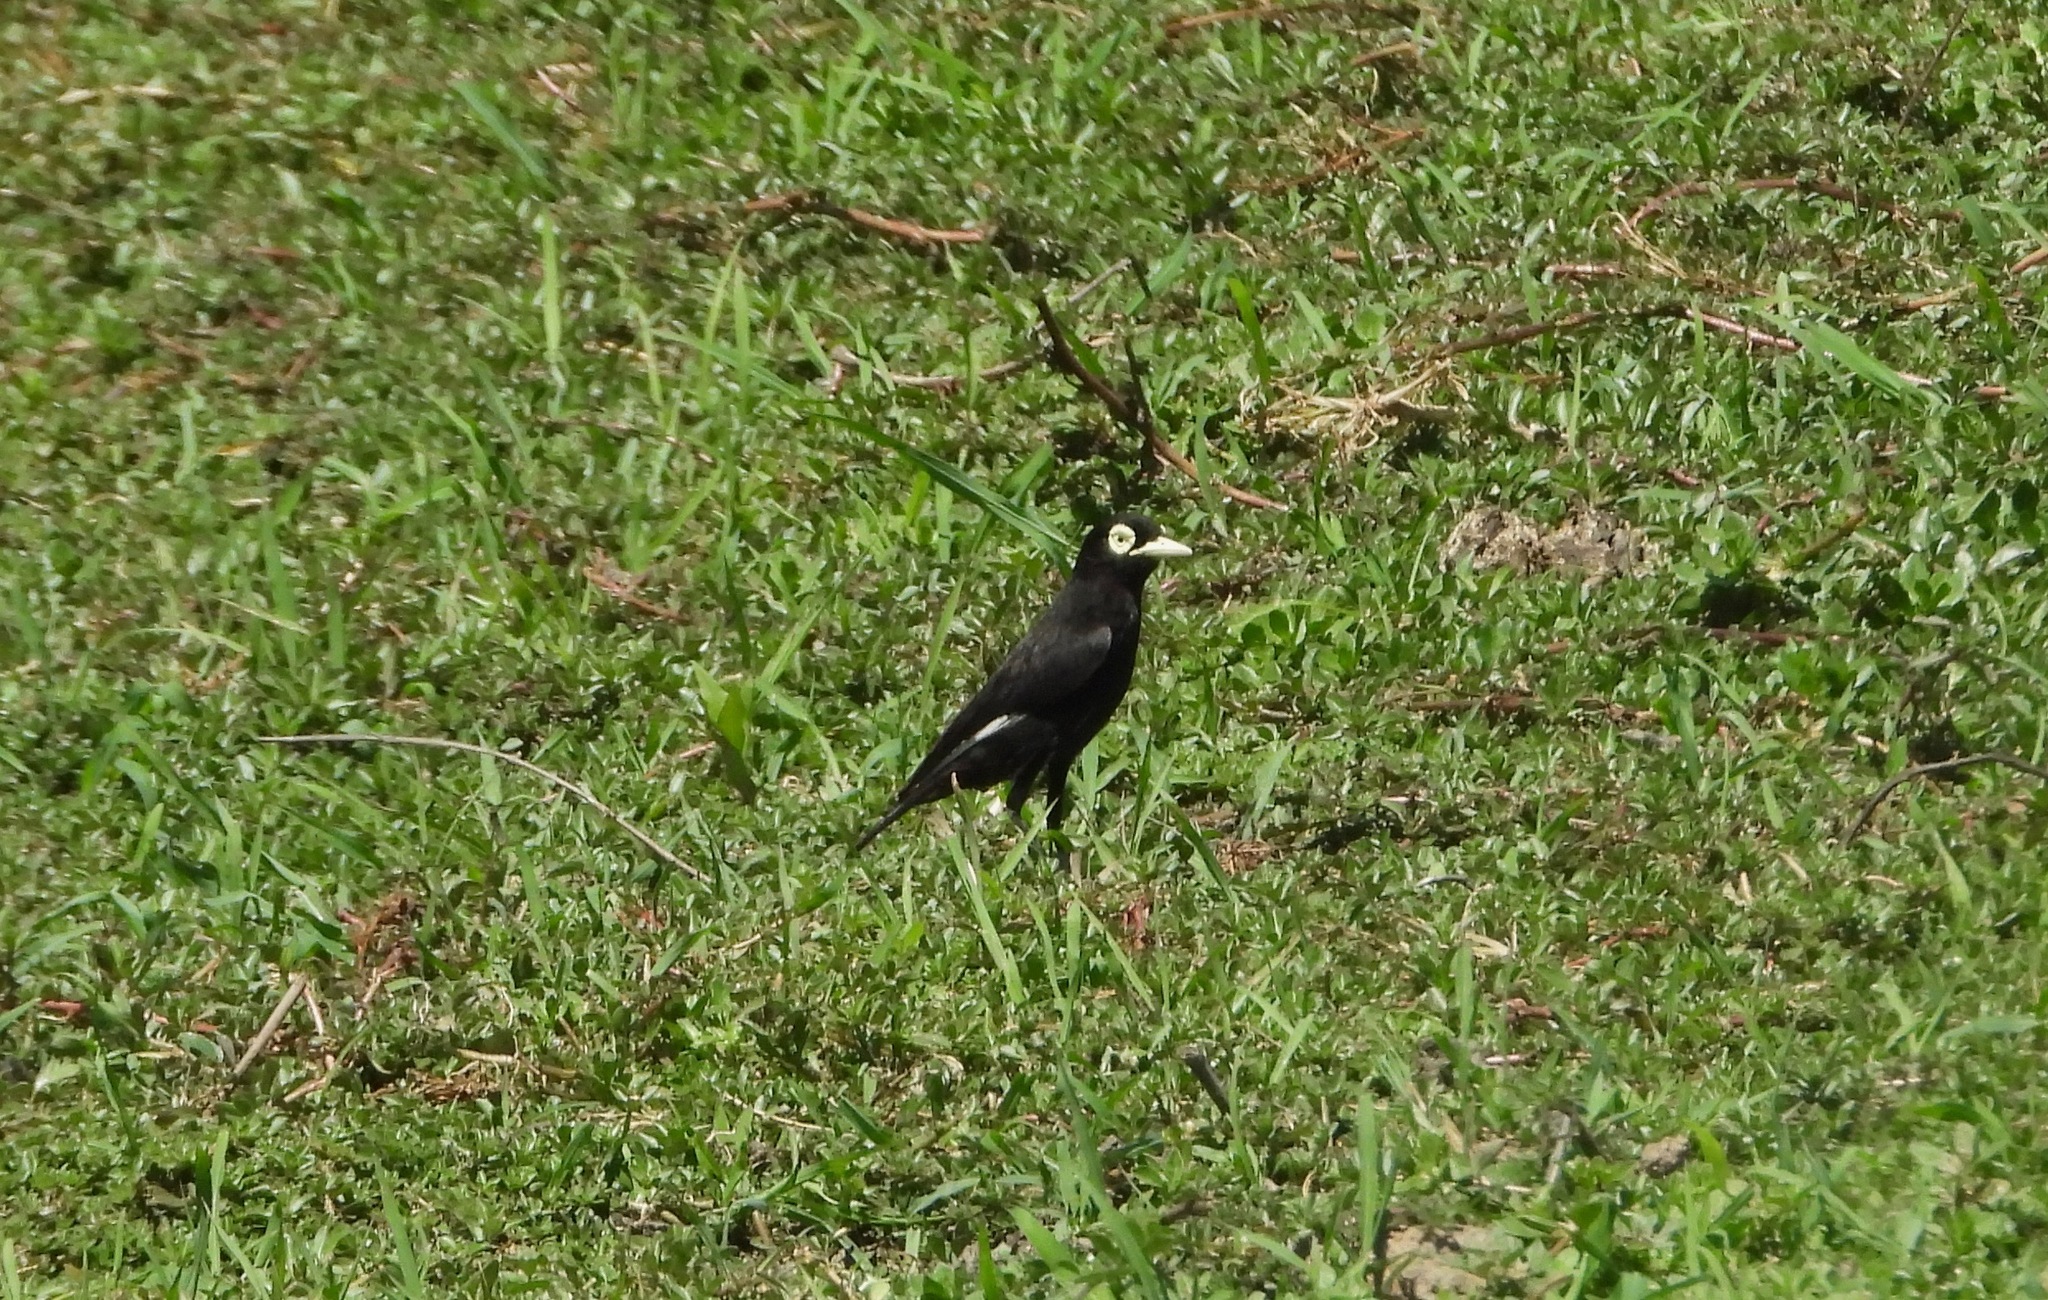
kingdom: Animalia
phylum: Chordata
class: Aves
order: Passeriformes
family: Tyrannidae
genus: Hymenops
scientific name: Hymenops perspicillatus
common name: Spectacled tyrant
